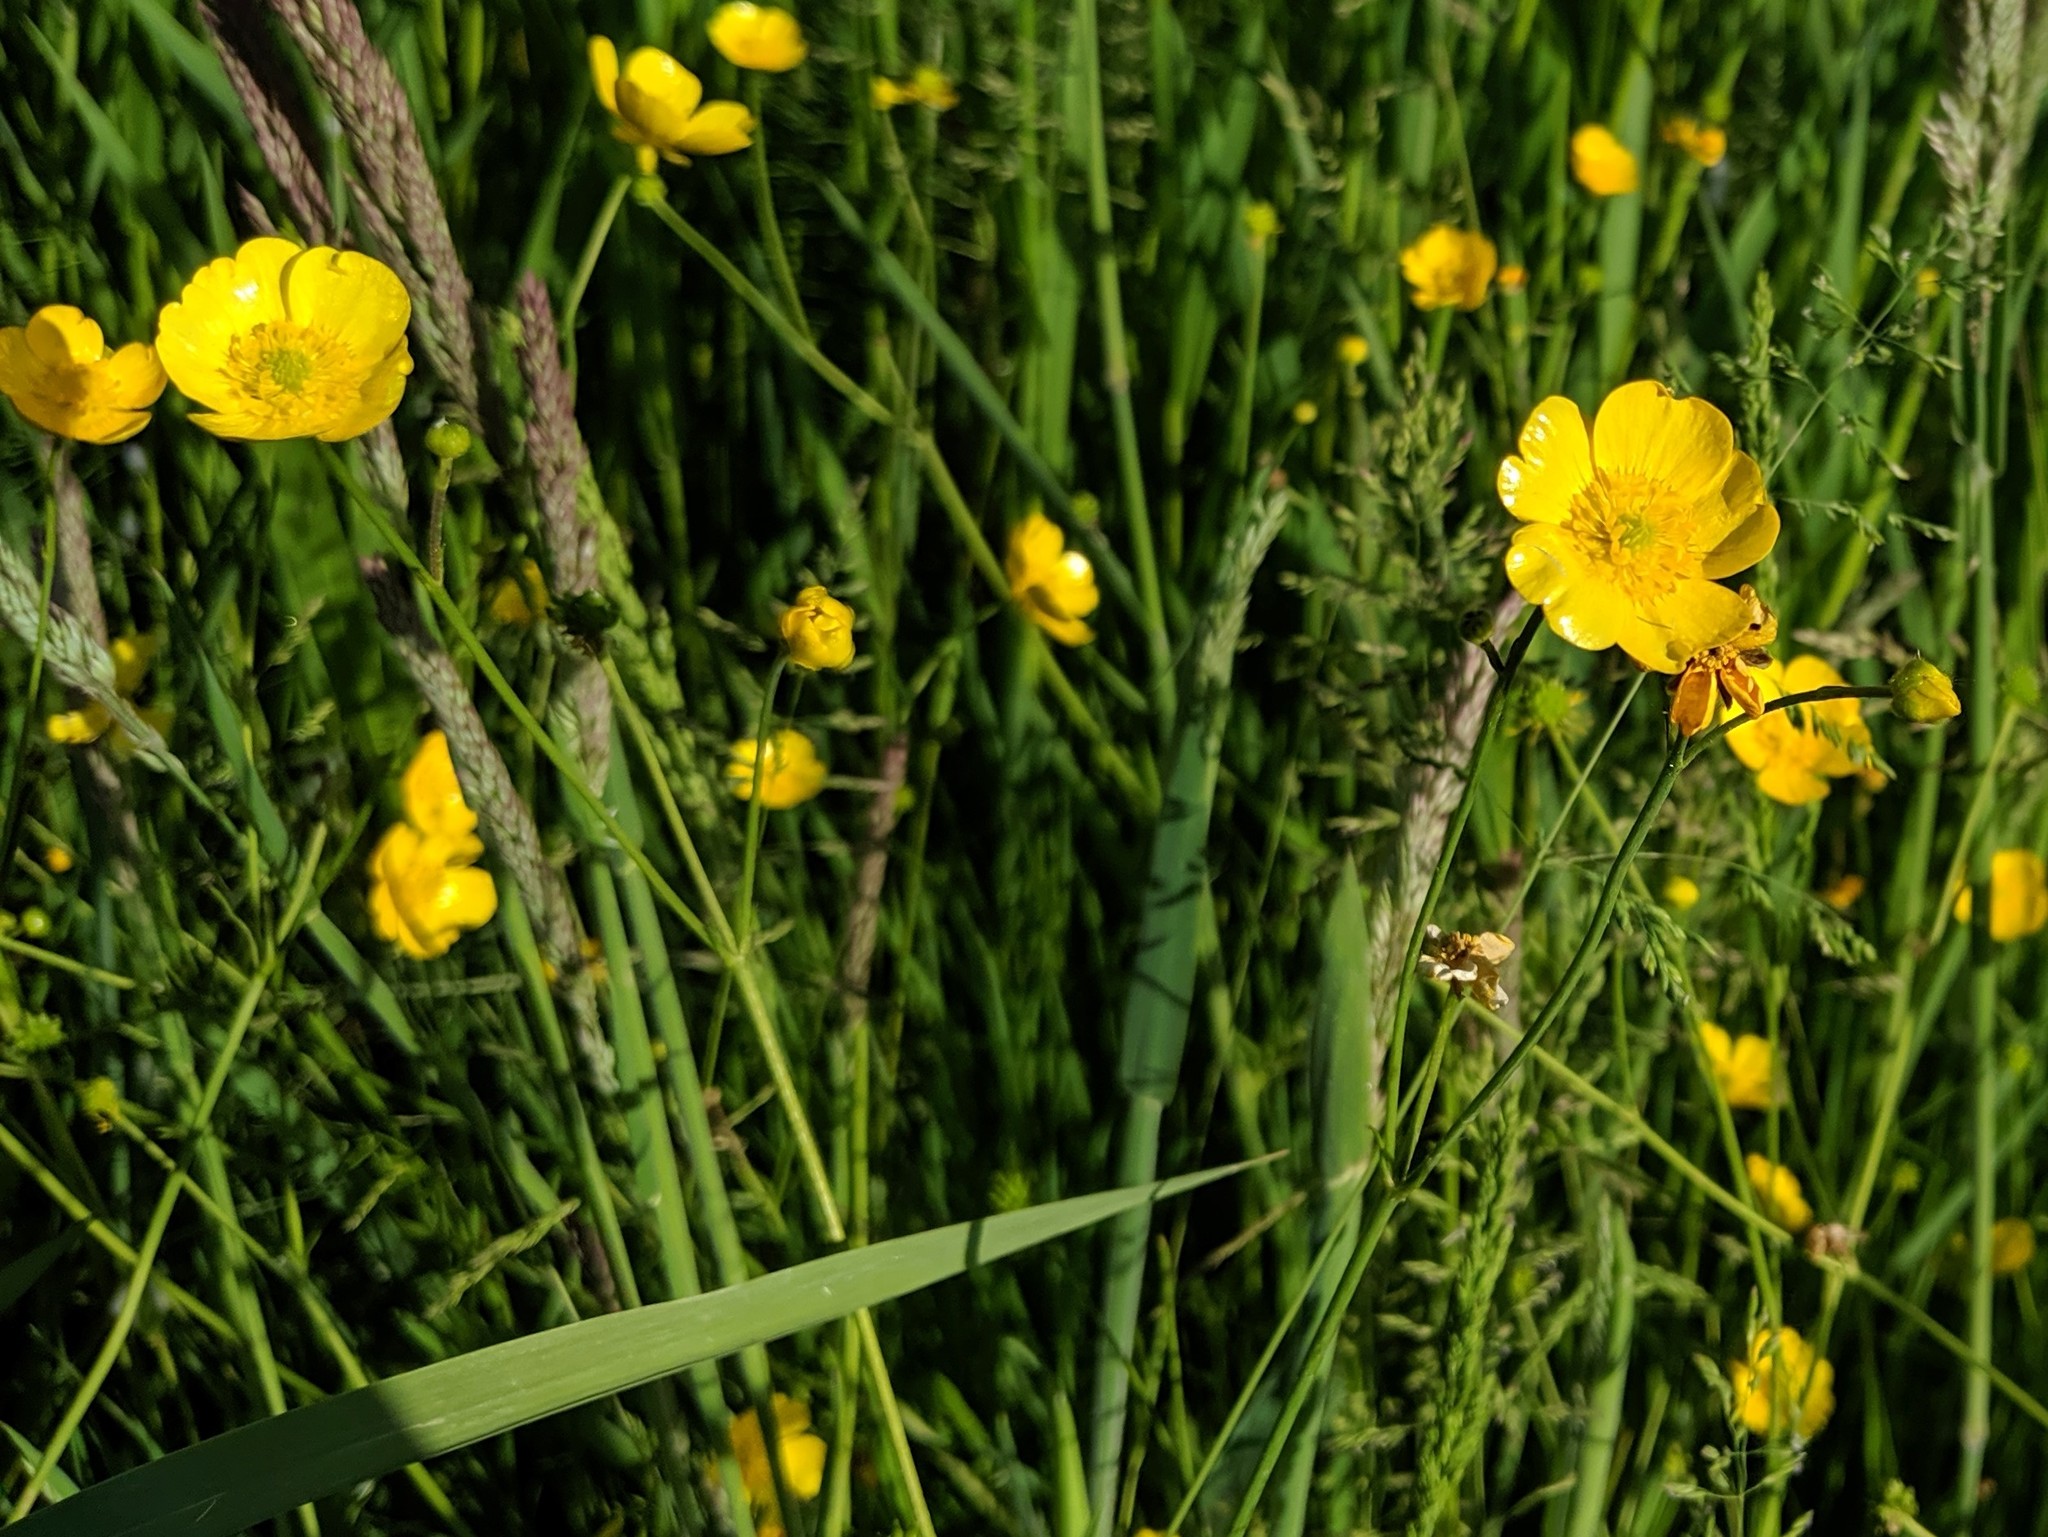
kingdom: Plantae
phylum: Tracheophyta
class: Magnoliopsida
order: Ranunculales
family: Ranunculaceae
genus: Ranunculus
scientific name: Ranunculus acris
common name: Meadow buttercup
